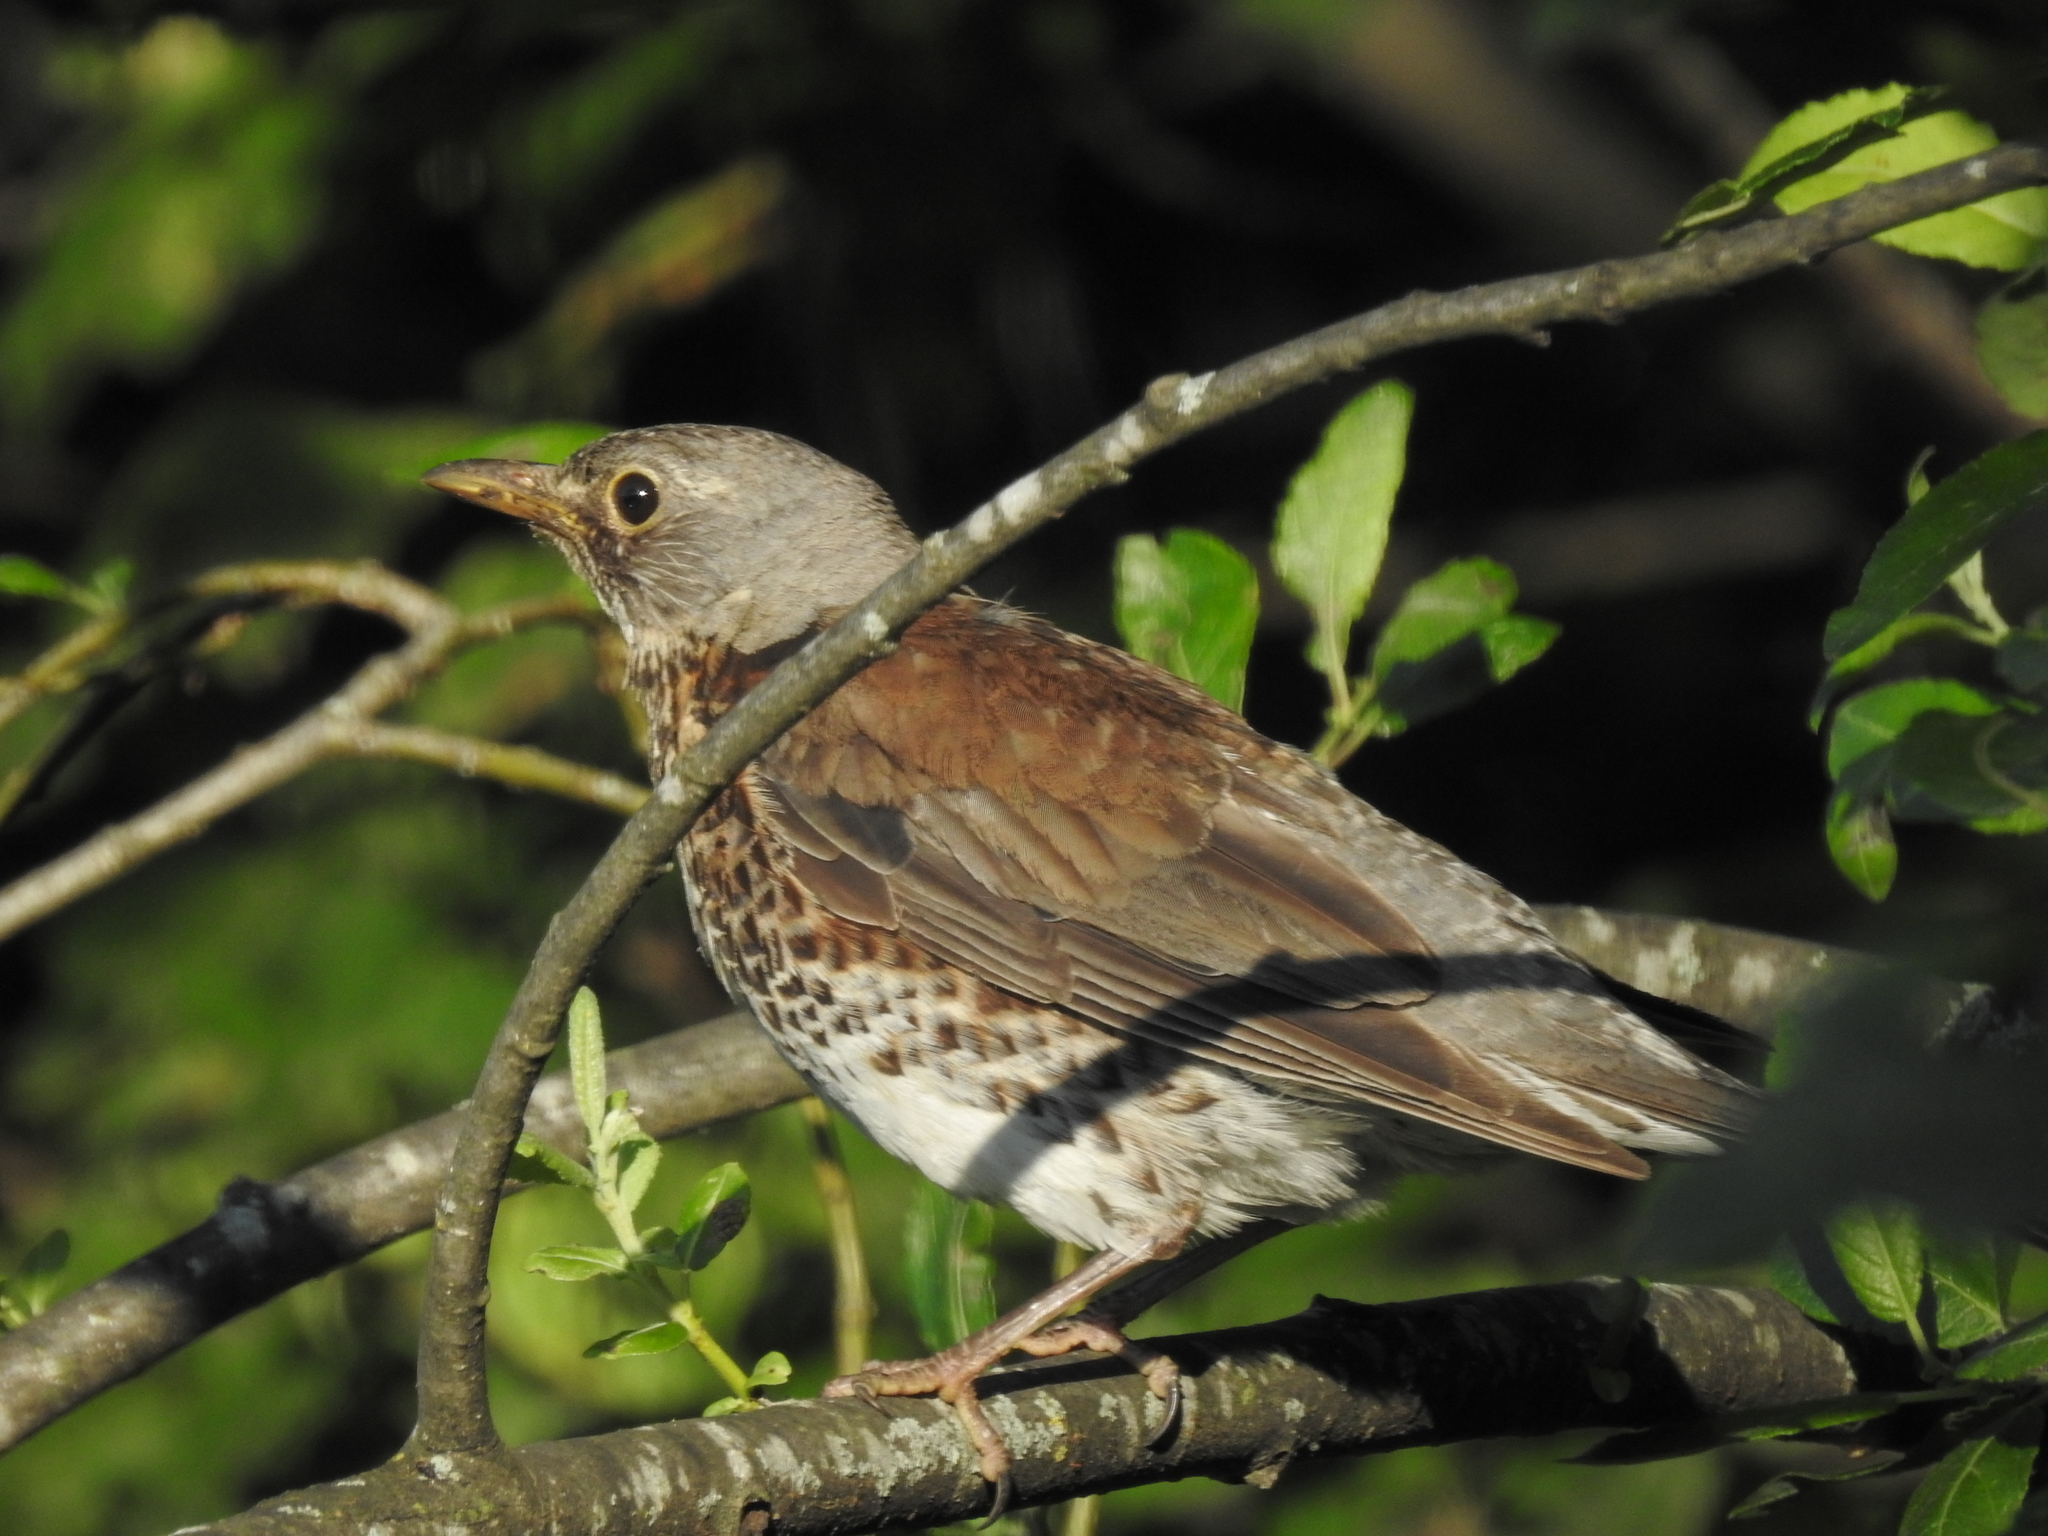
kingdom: Animalia
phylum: Chordata
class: Aves
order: Passeriformes
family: Turdidae
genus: Turdus
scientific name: Turdus pilaris
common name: Fieldfare
